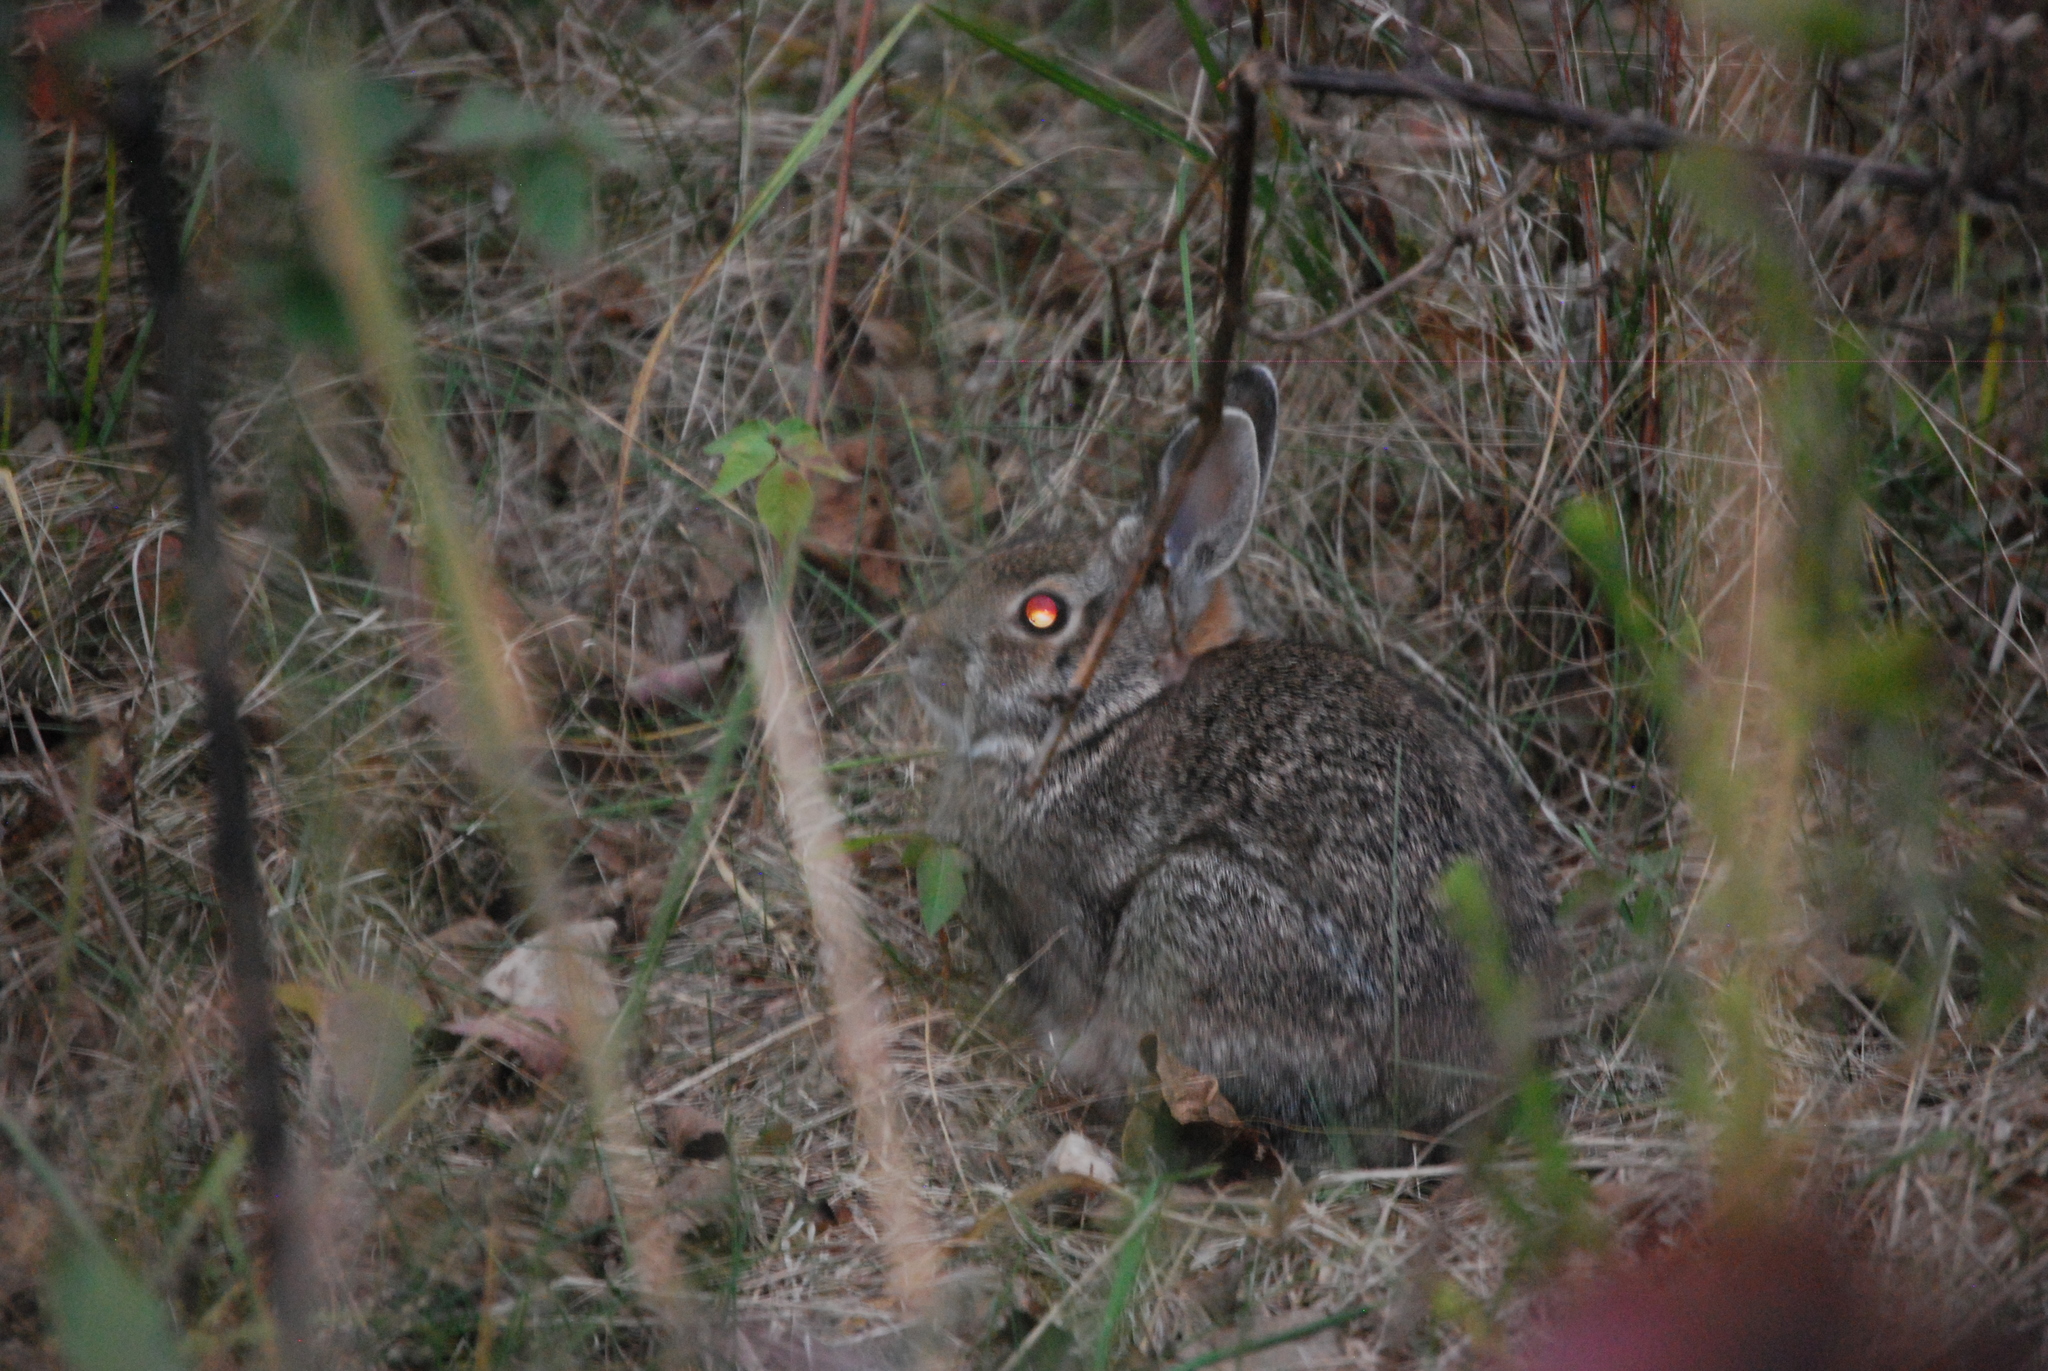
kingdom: Animalia
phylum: Chordata
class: Mammalia
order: Lagomorpha
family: Leporidae
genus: Sylvilagus
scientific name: Sylvilagus floridanus
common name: Eastern cottontail
